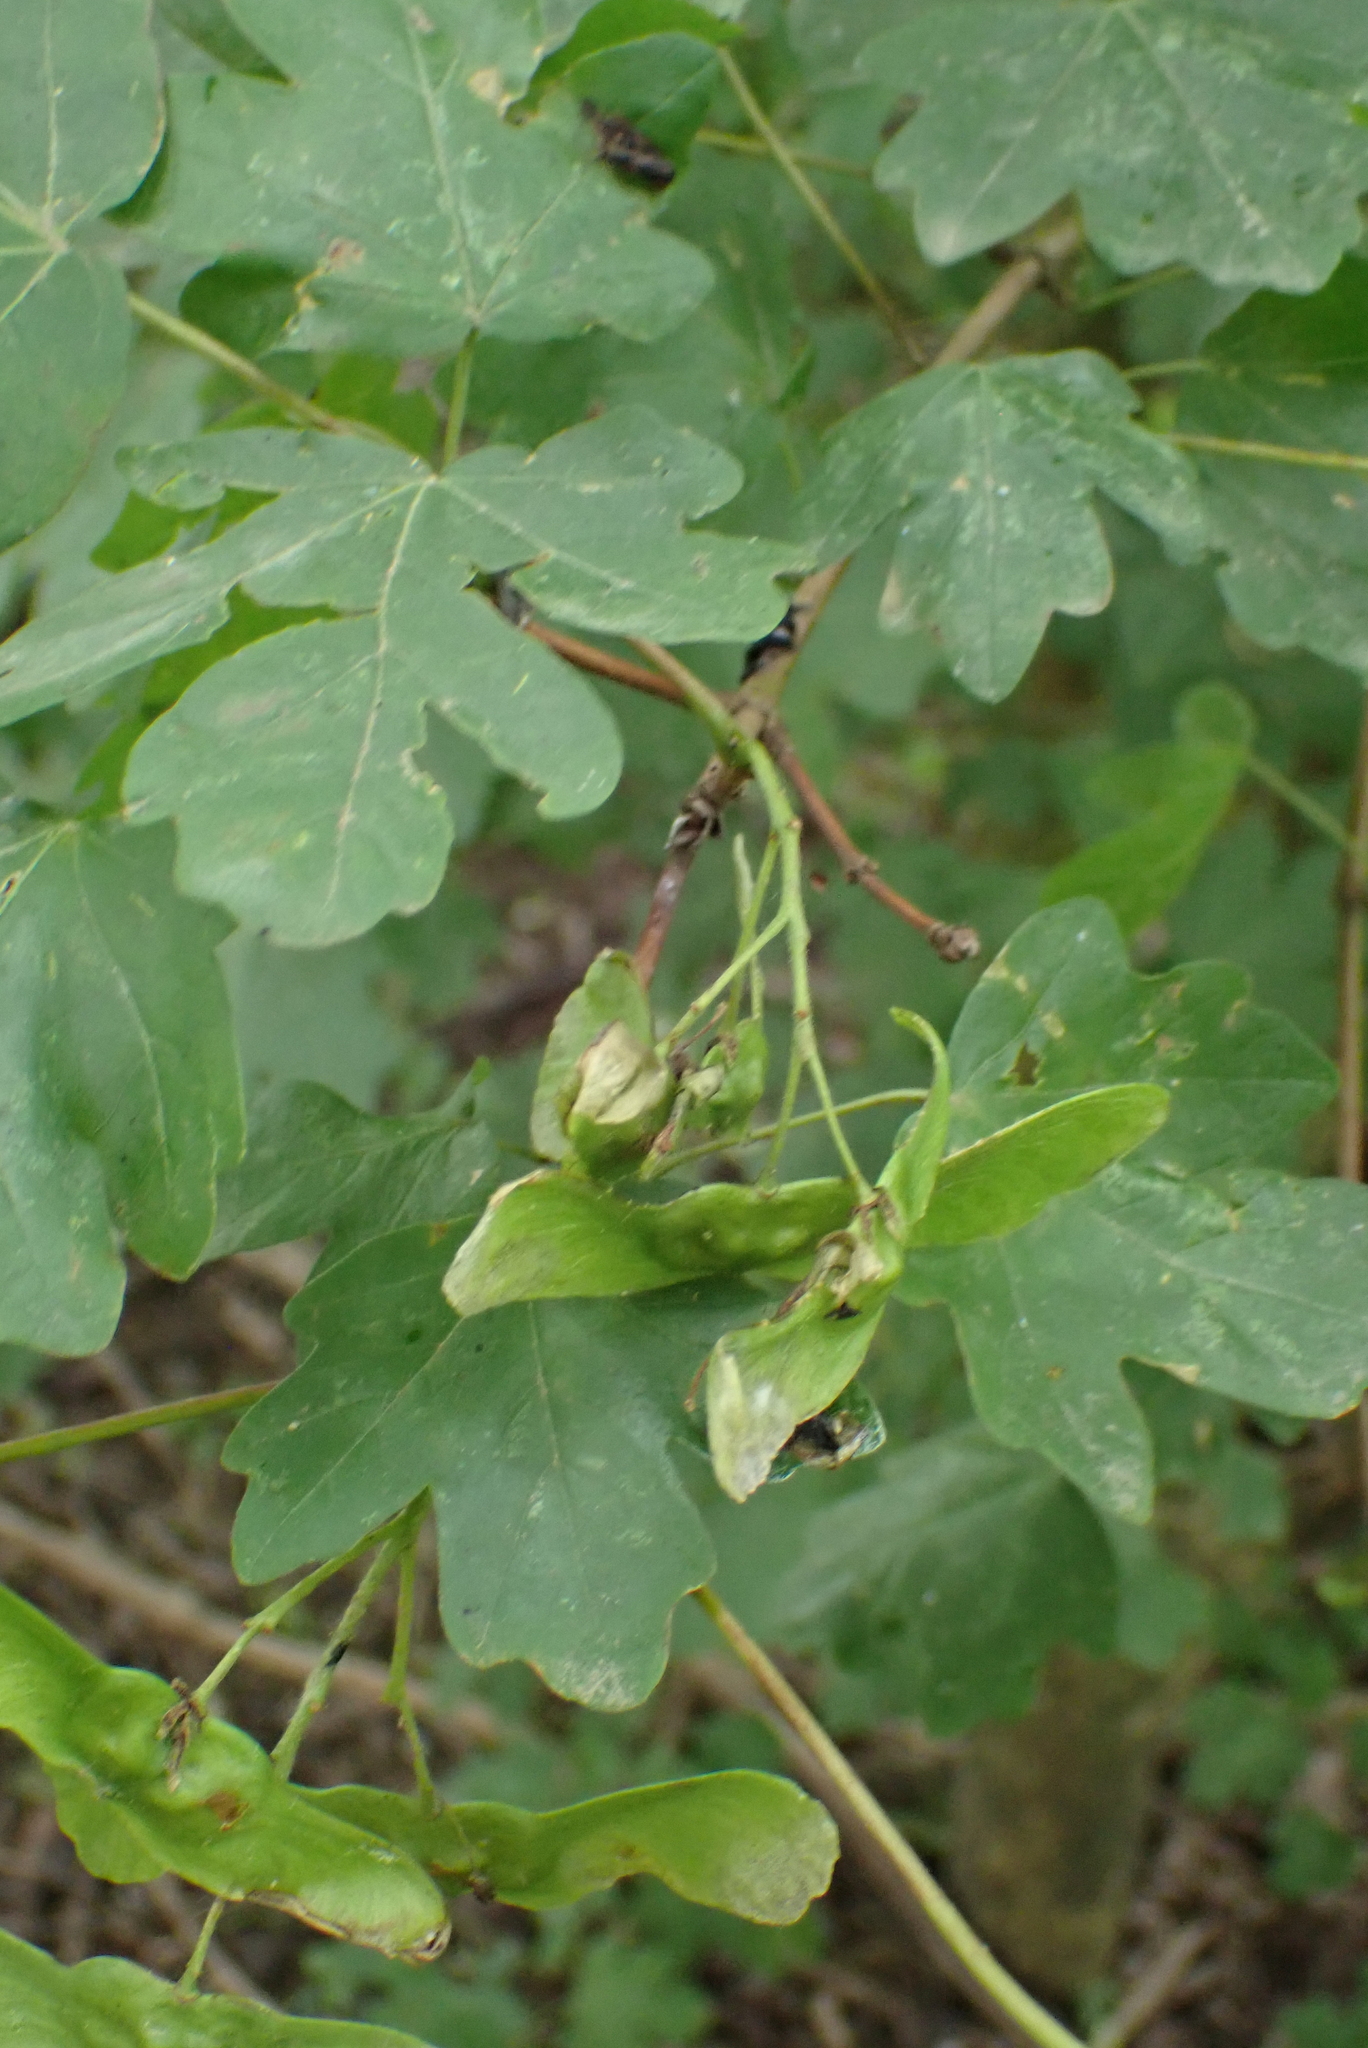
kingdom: Plantae
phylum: Tracheophyta
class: Magnoliopsida
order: Sapindales
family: Sapindaceae
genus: Acer
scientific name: Acer campestre
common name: Field maple
